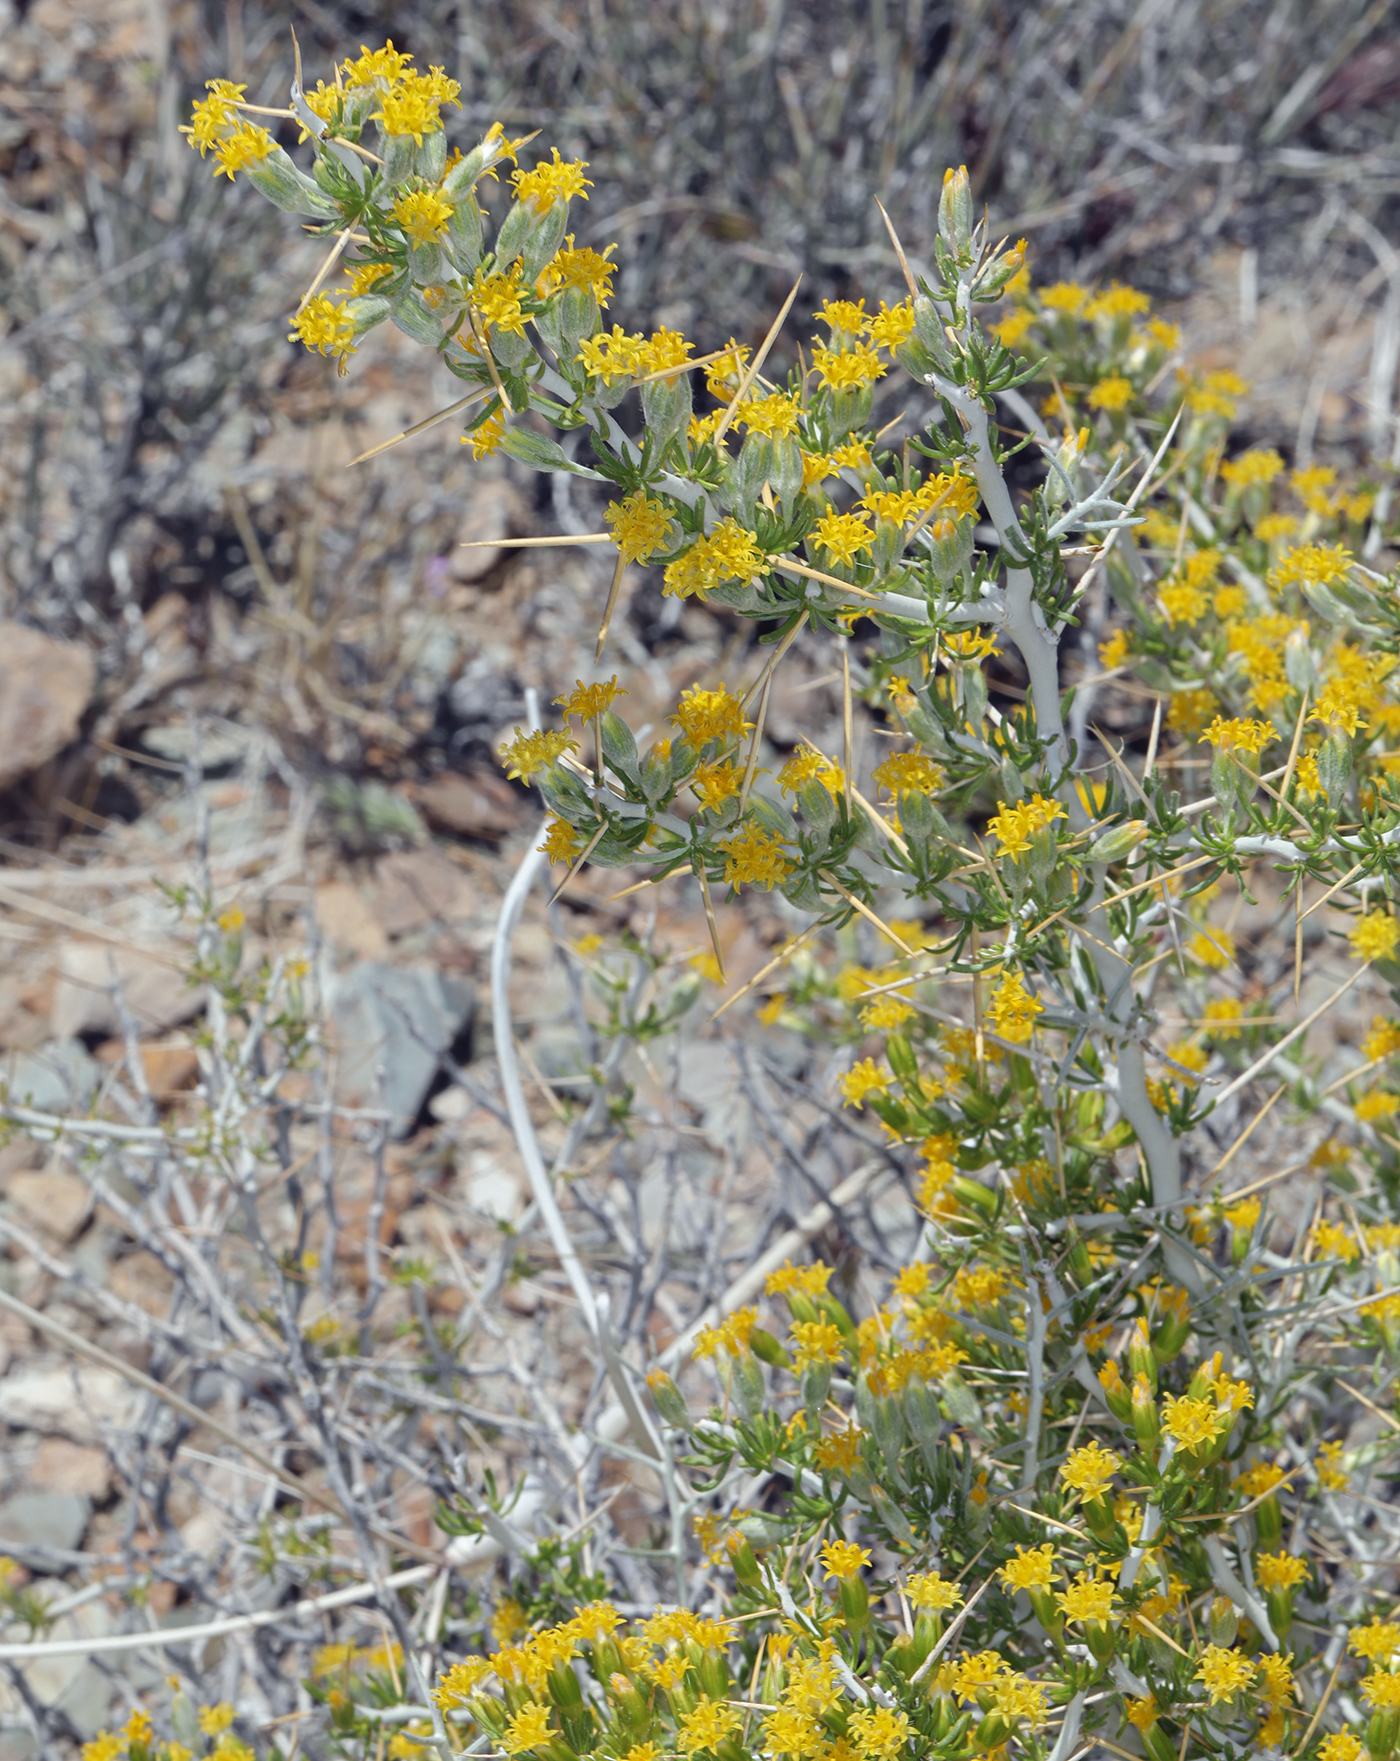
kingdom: Plantae
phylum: Tracheophyta
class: Magnoliopsida
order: Asterales
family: Asteraceae
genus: Tetradymia
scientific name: Tetradymia axillaris
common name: Long-spine horsebrush
